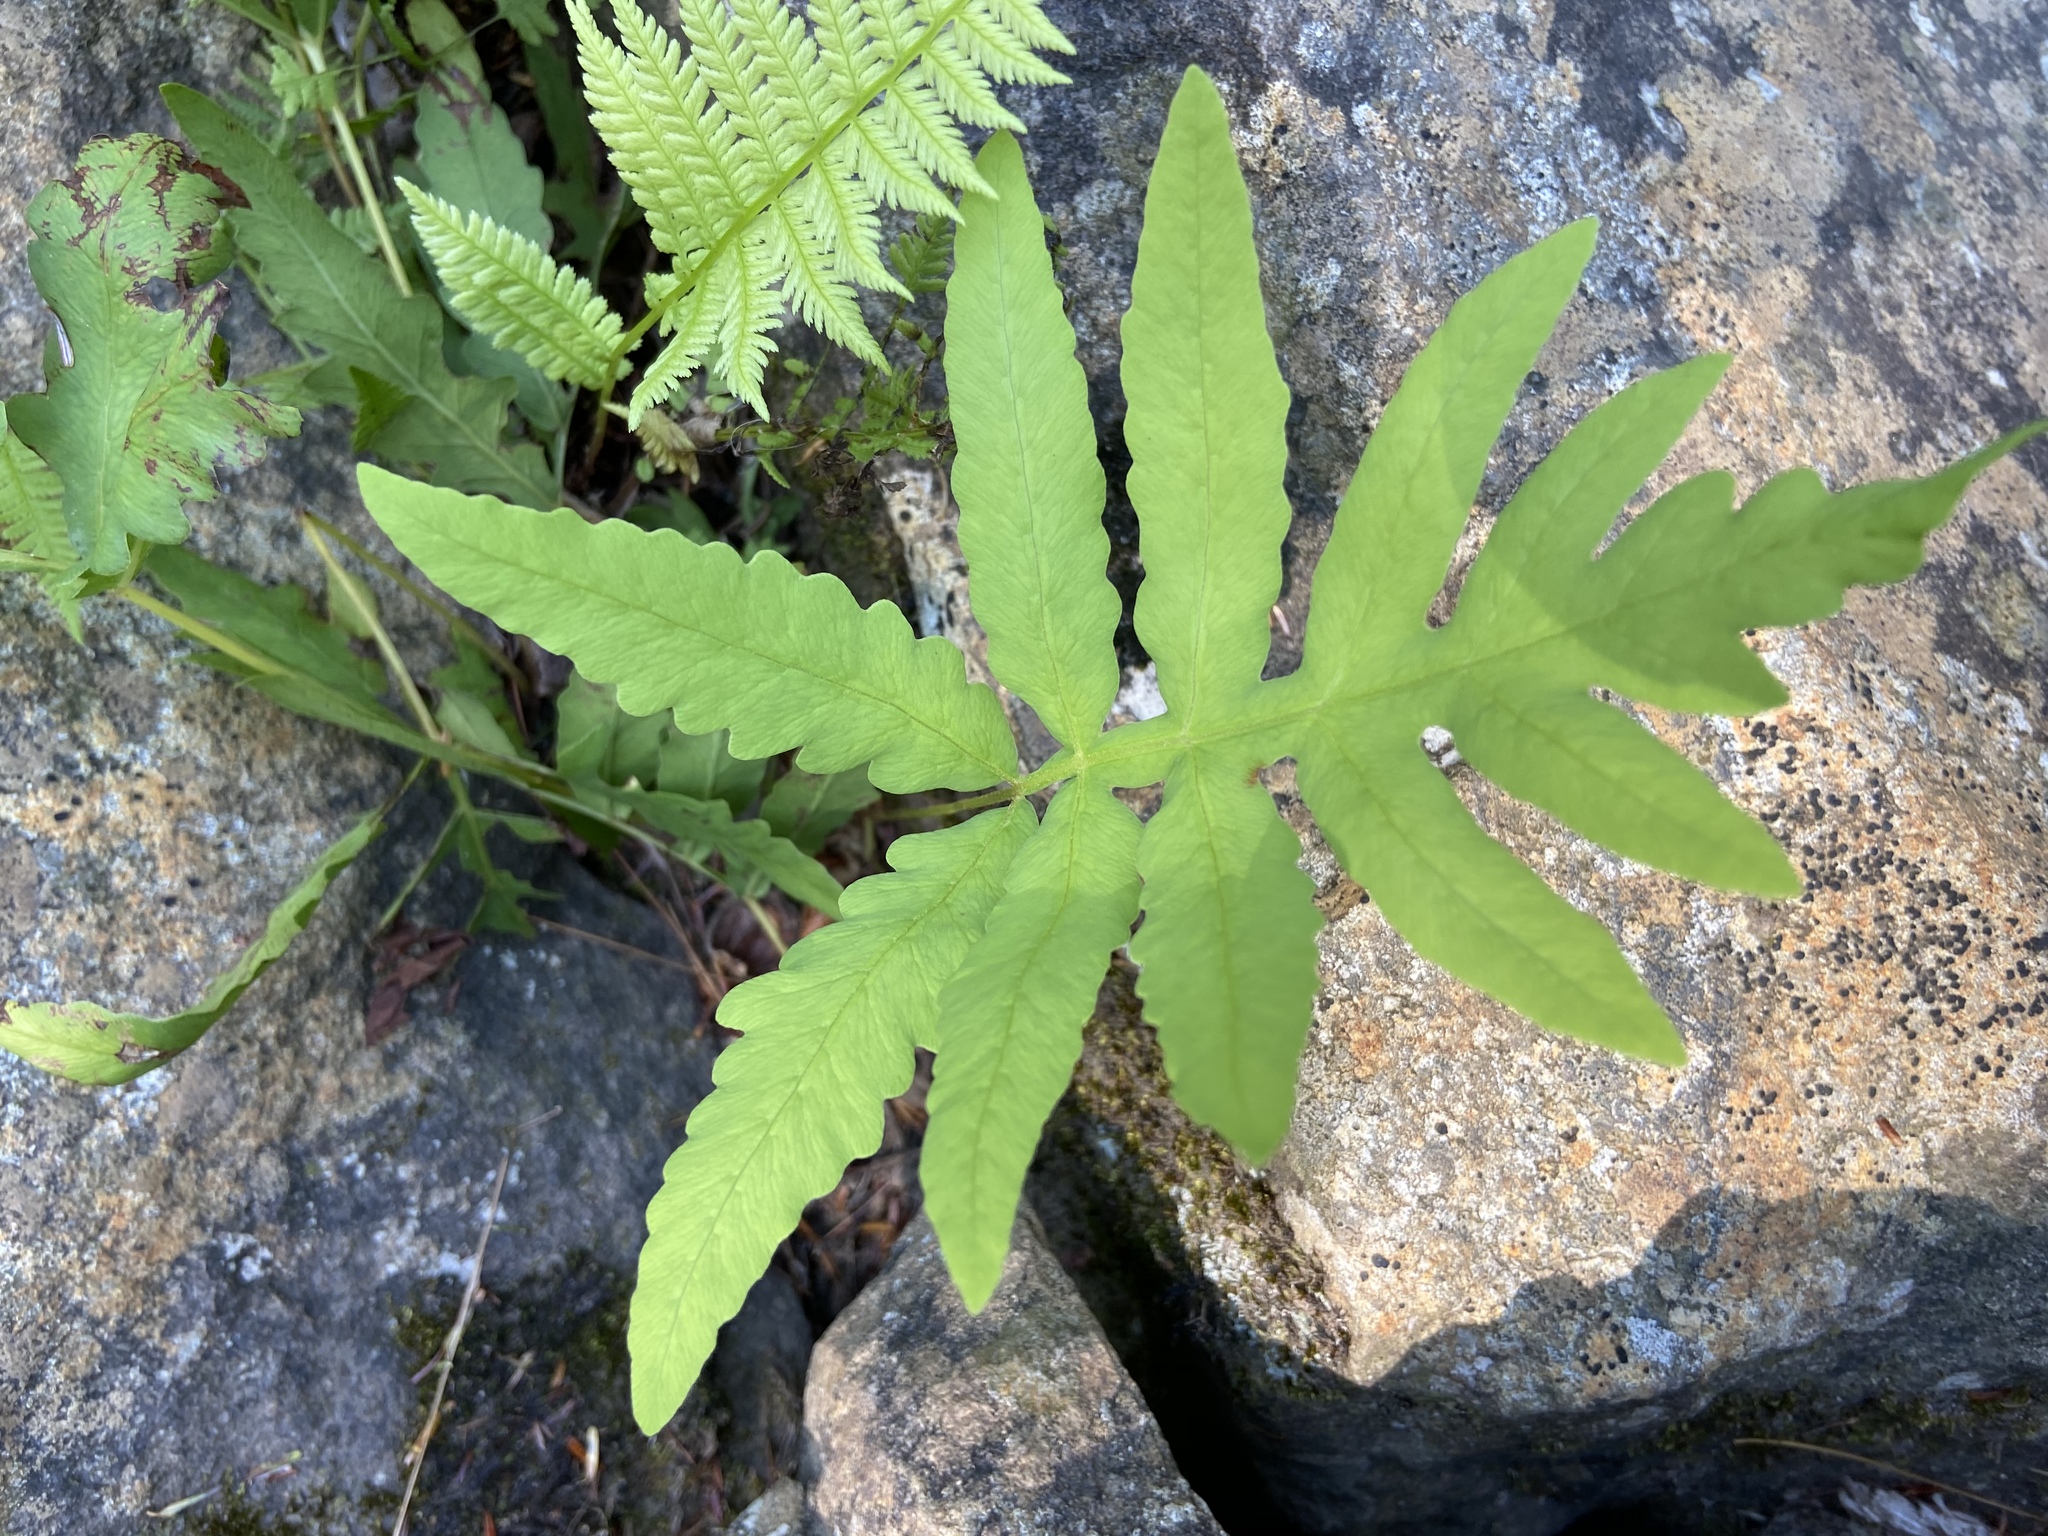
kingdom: Plantae
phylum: Tracheophyta
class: Polypodiopsida
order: Polypodiales
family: Onocleaceae
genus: Onoclea
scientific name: Onoclea sensibilis
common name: Sensitive fern
